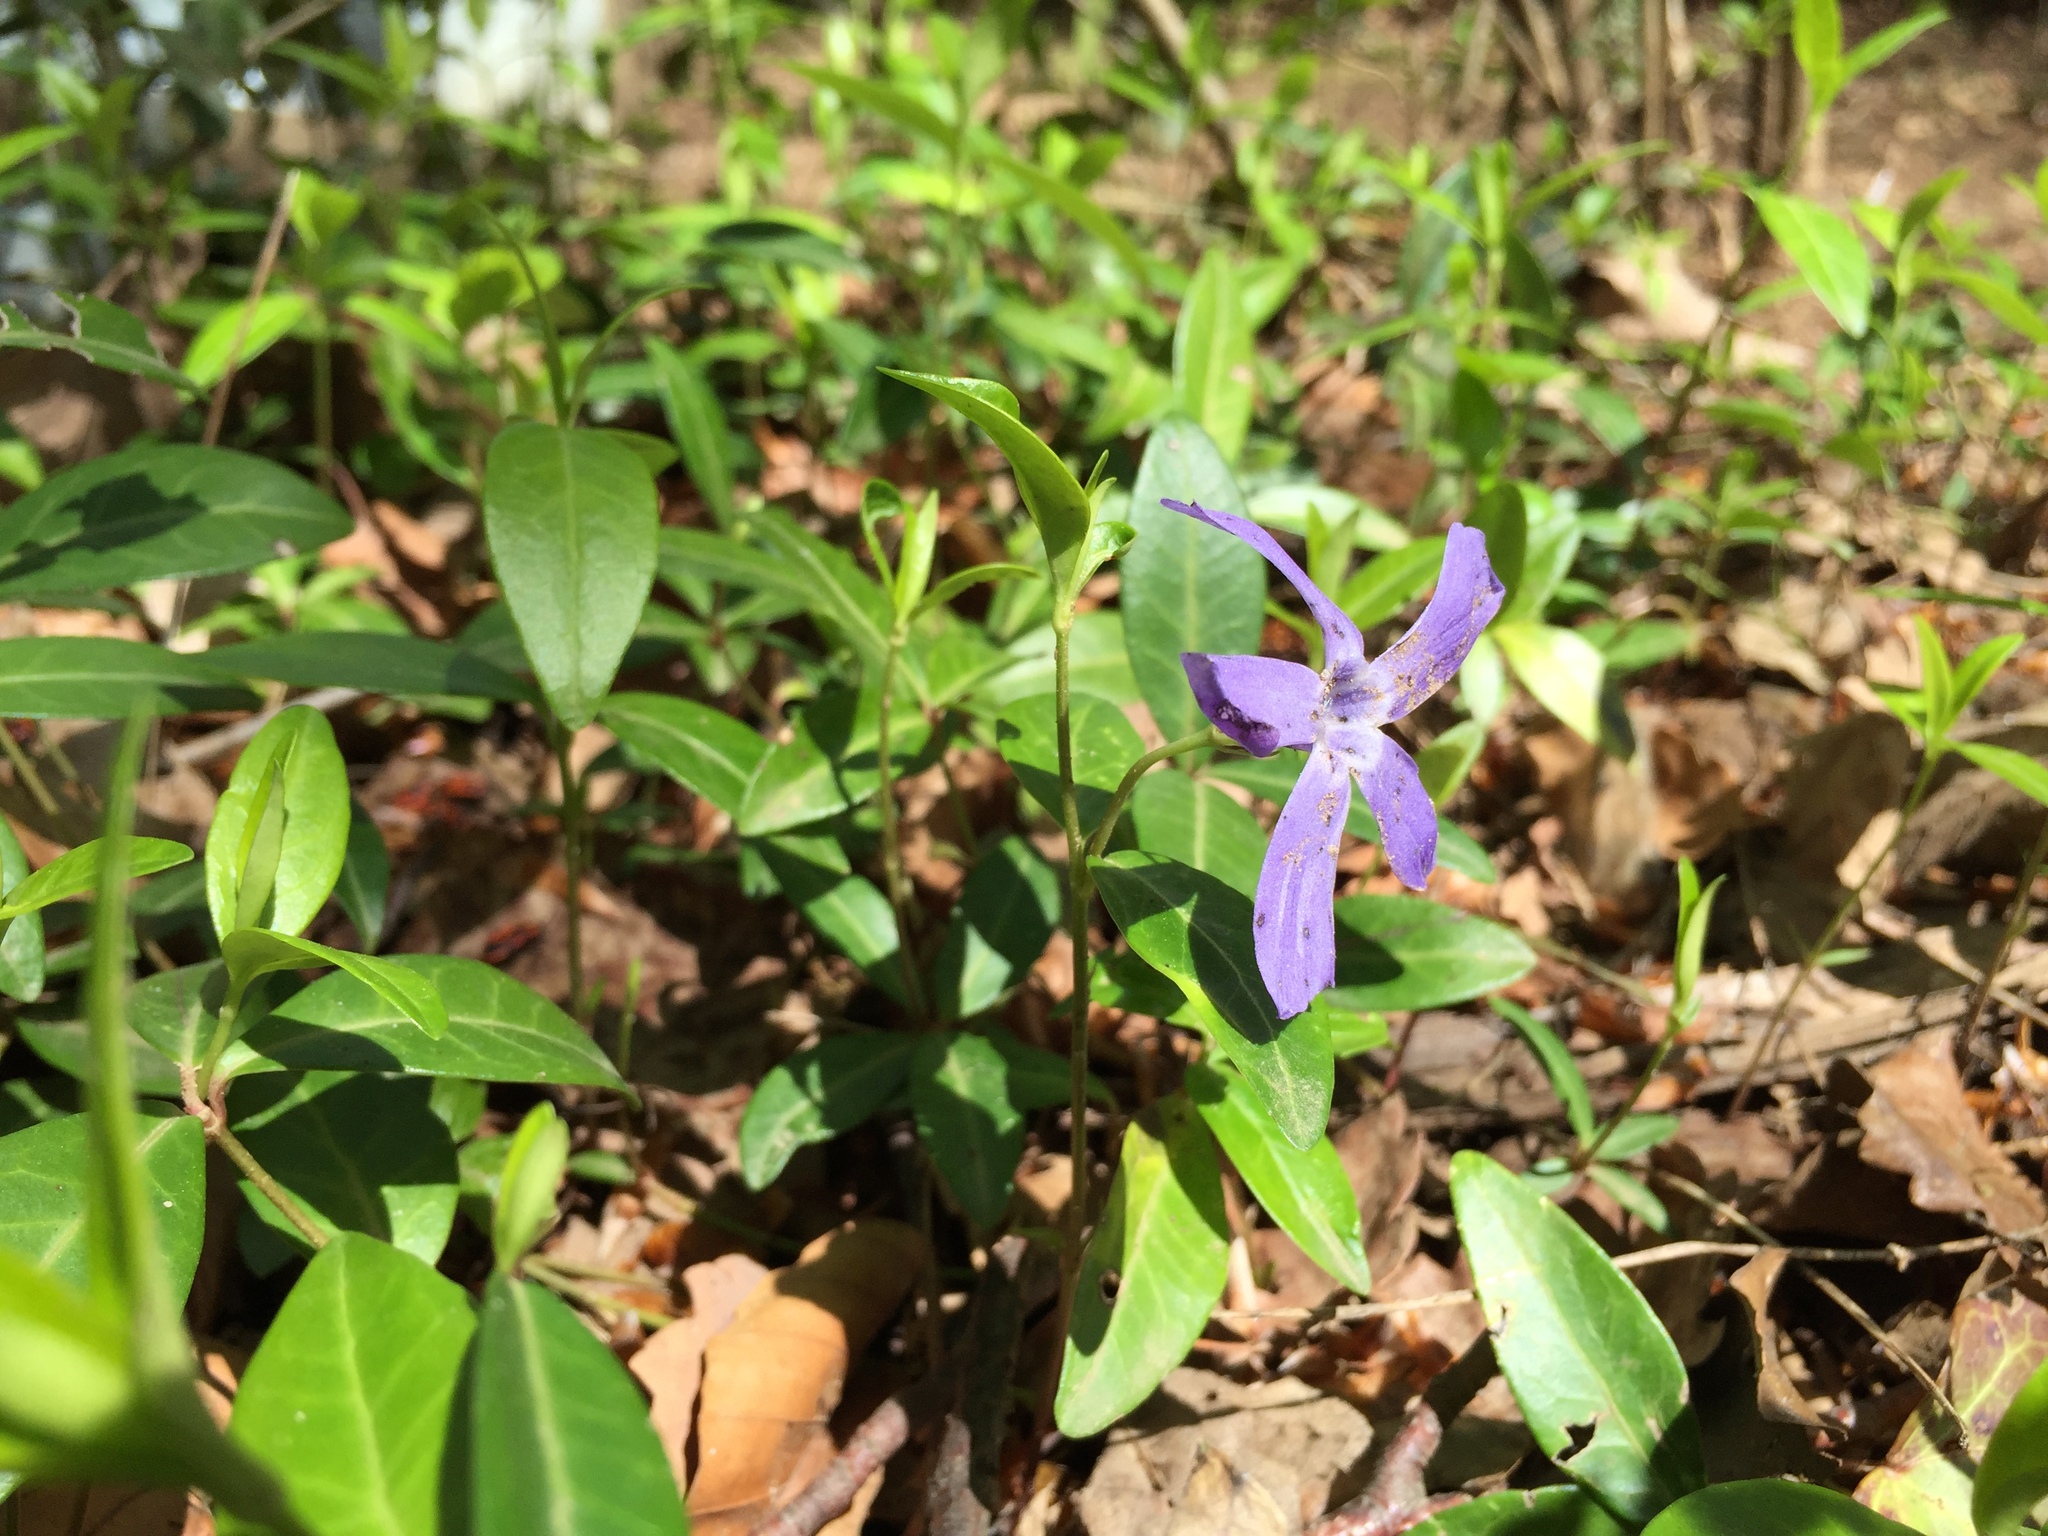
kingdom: Plantae
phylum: Tracheophyta
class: Magnoliopsida
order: Gentianales
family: Apocynaceae
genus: Vinca
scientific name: Vinca minor
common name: Lesser periwinkle
